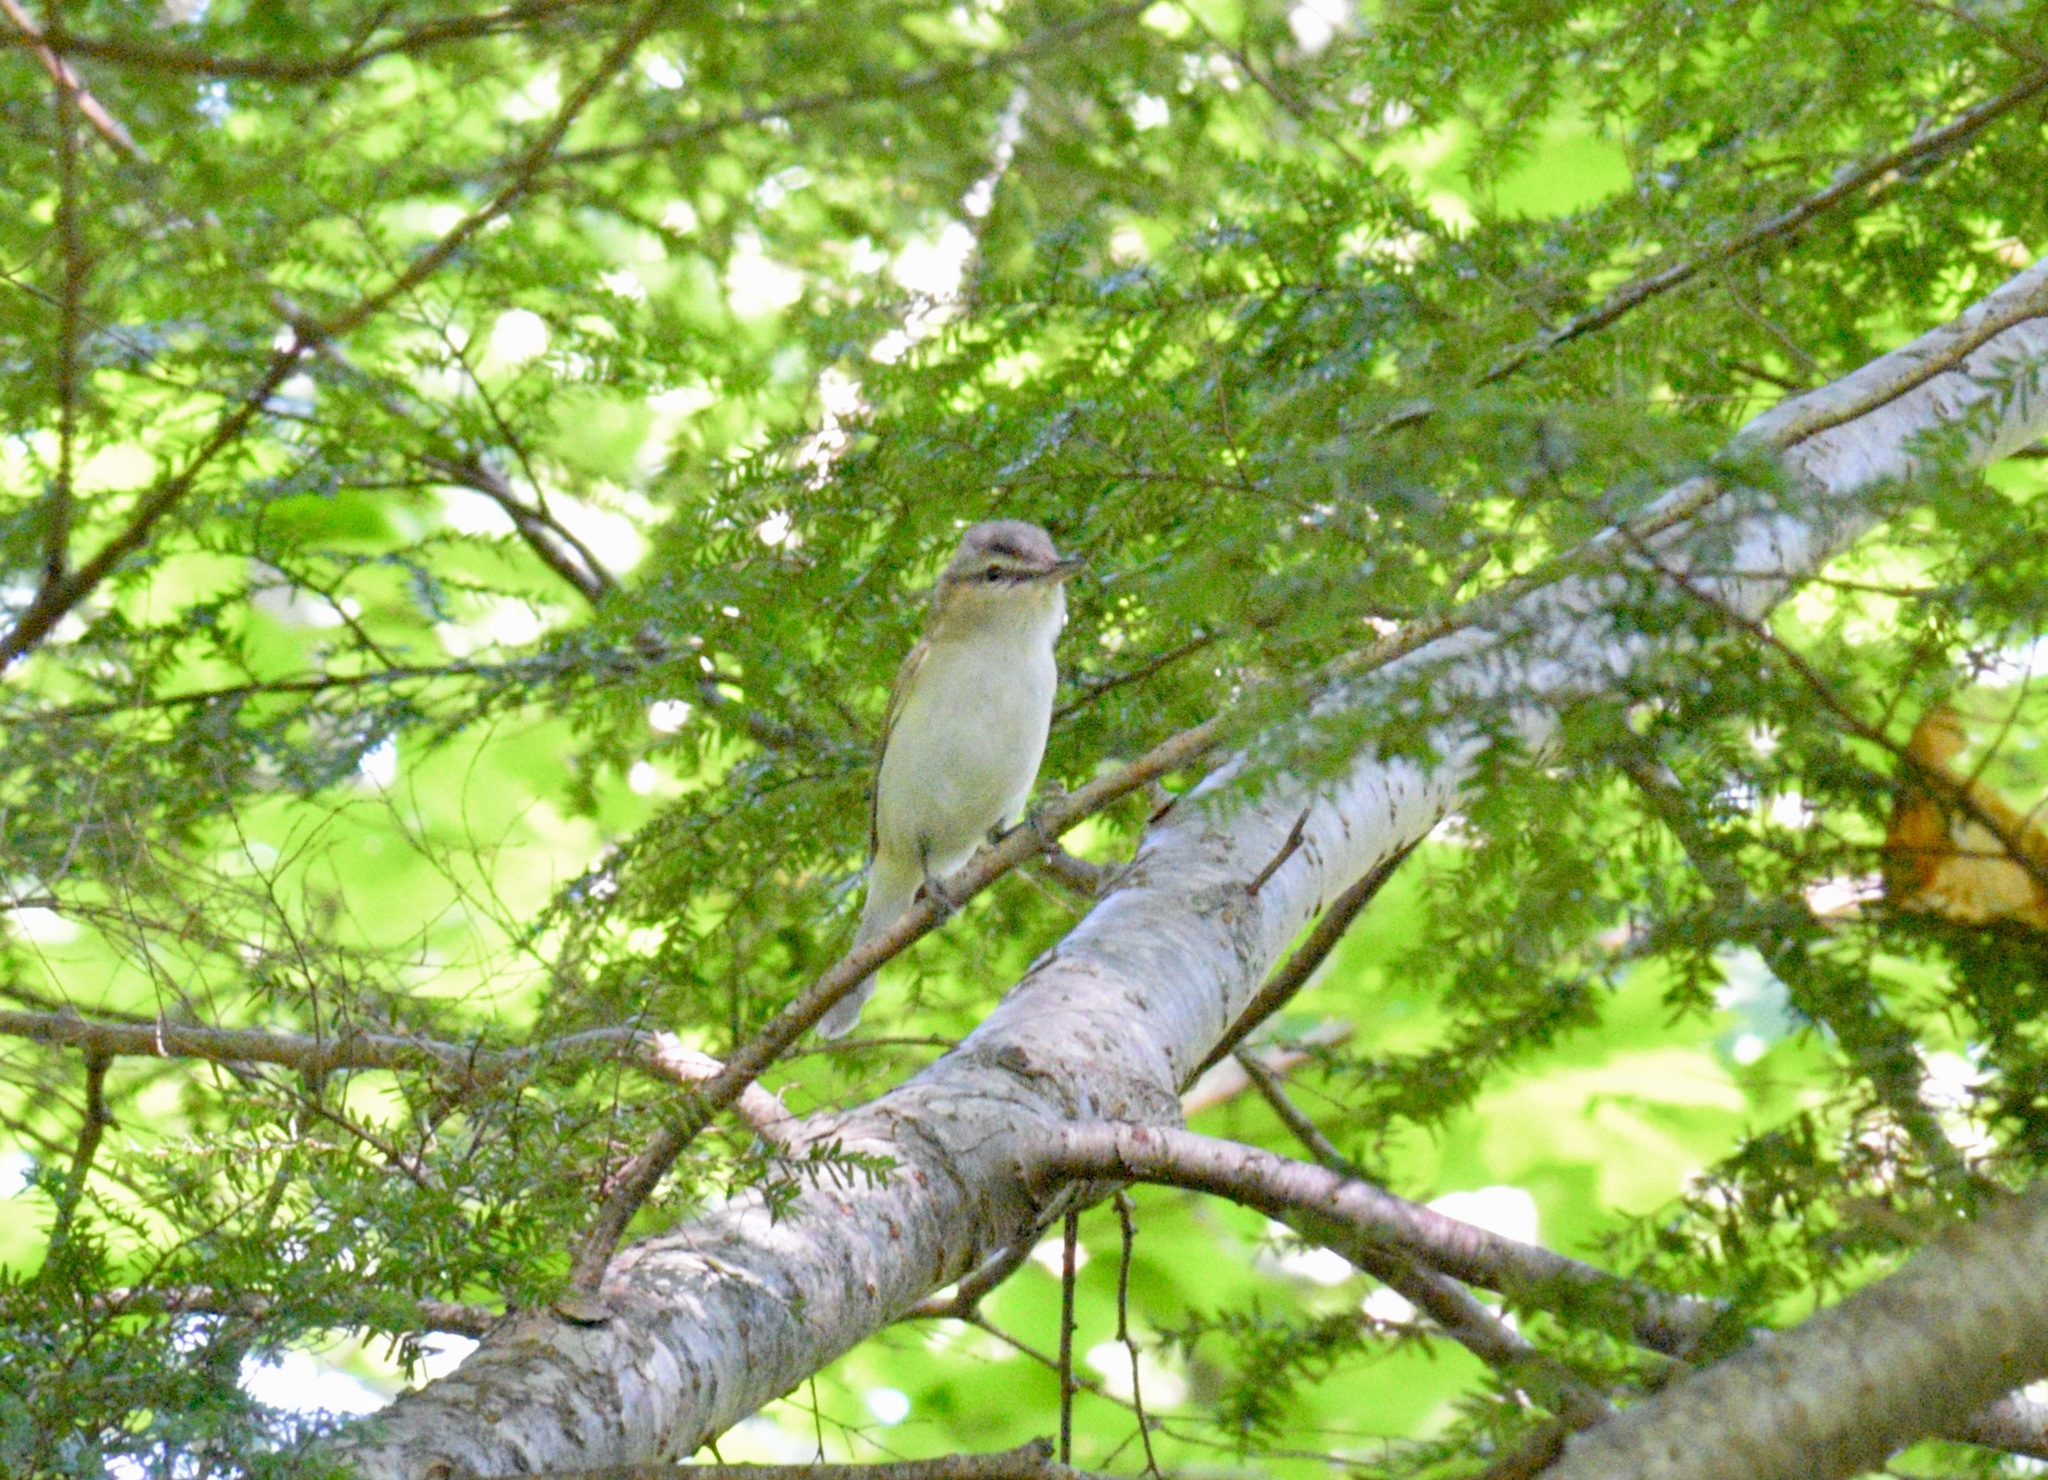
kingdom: Animalia
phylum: Chordata
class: Aves
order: Passeriformes
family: Vireonidae
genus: Vireo
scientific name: Vireo olivaceus
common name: Red-eyed vireo
